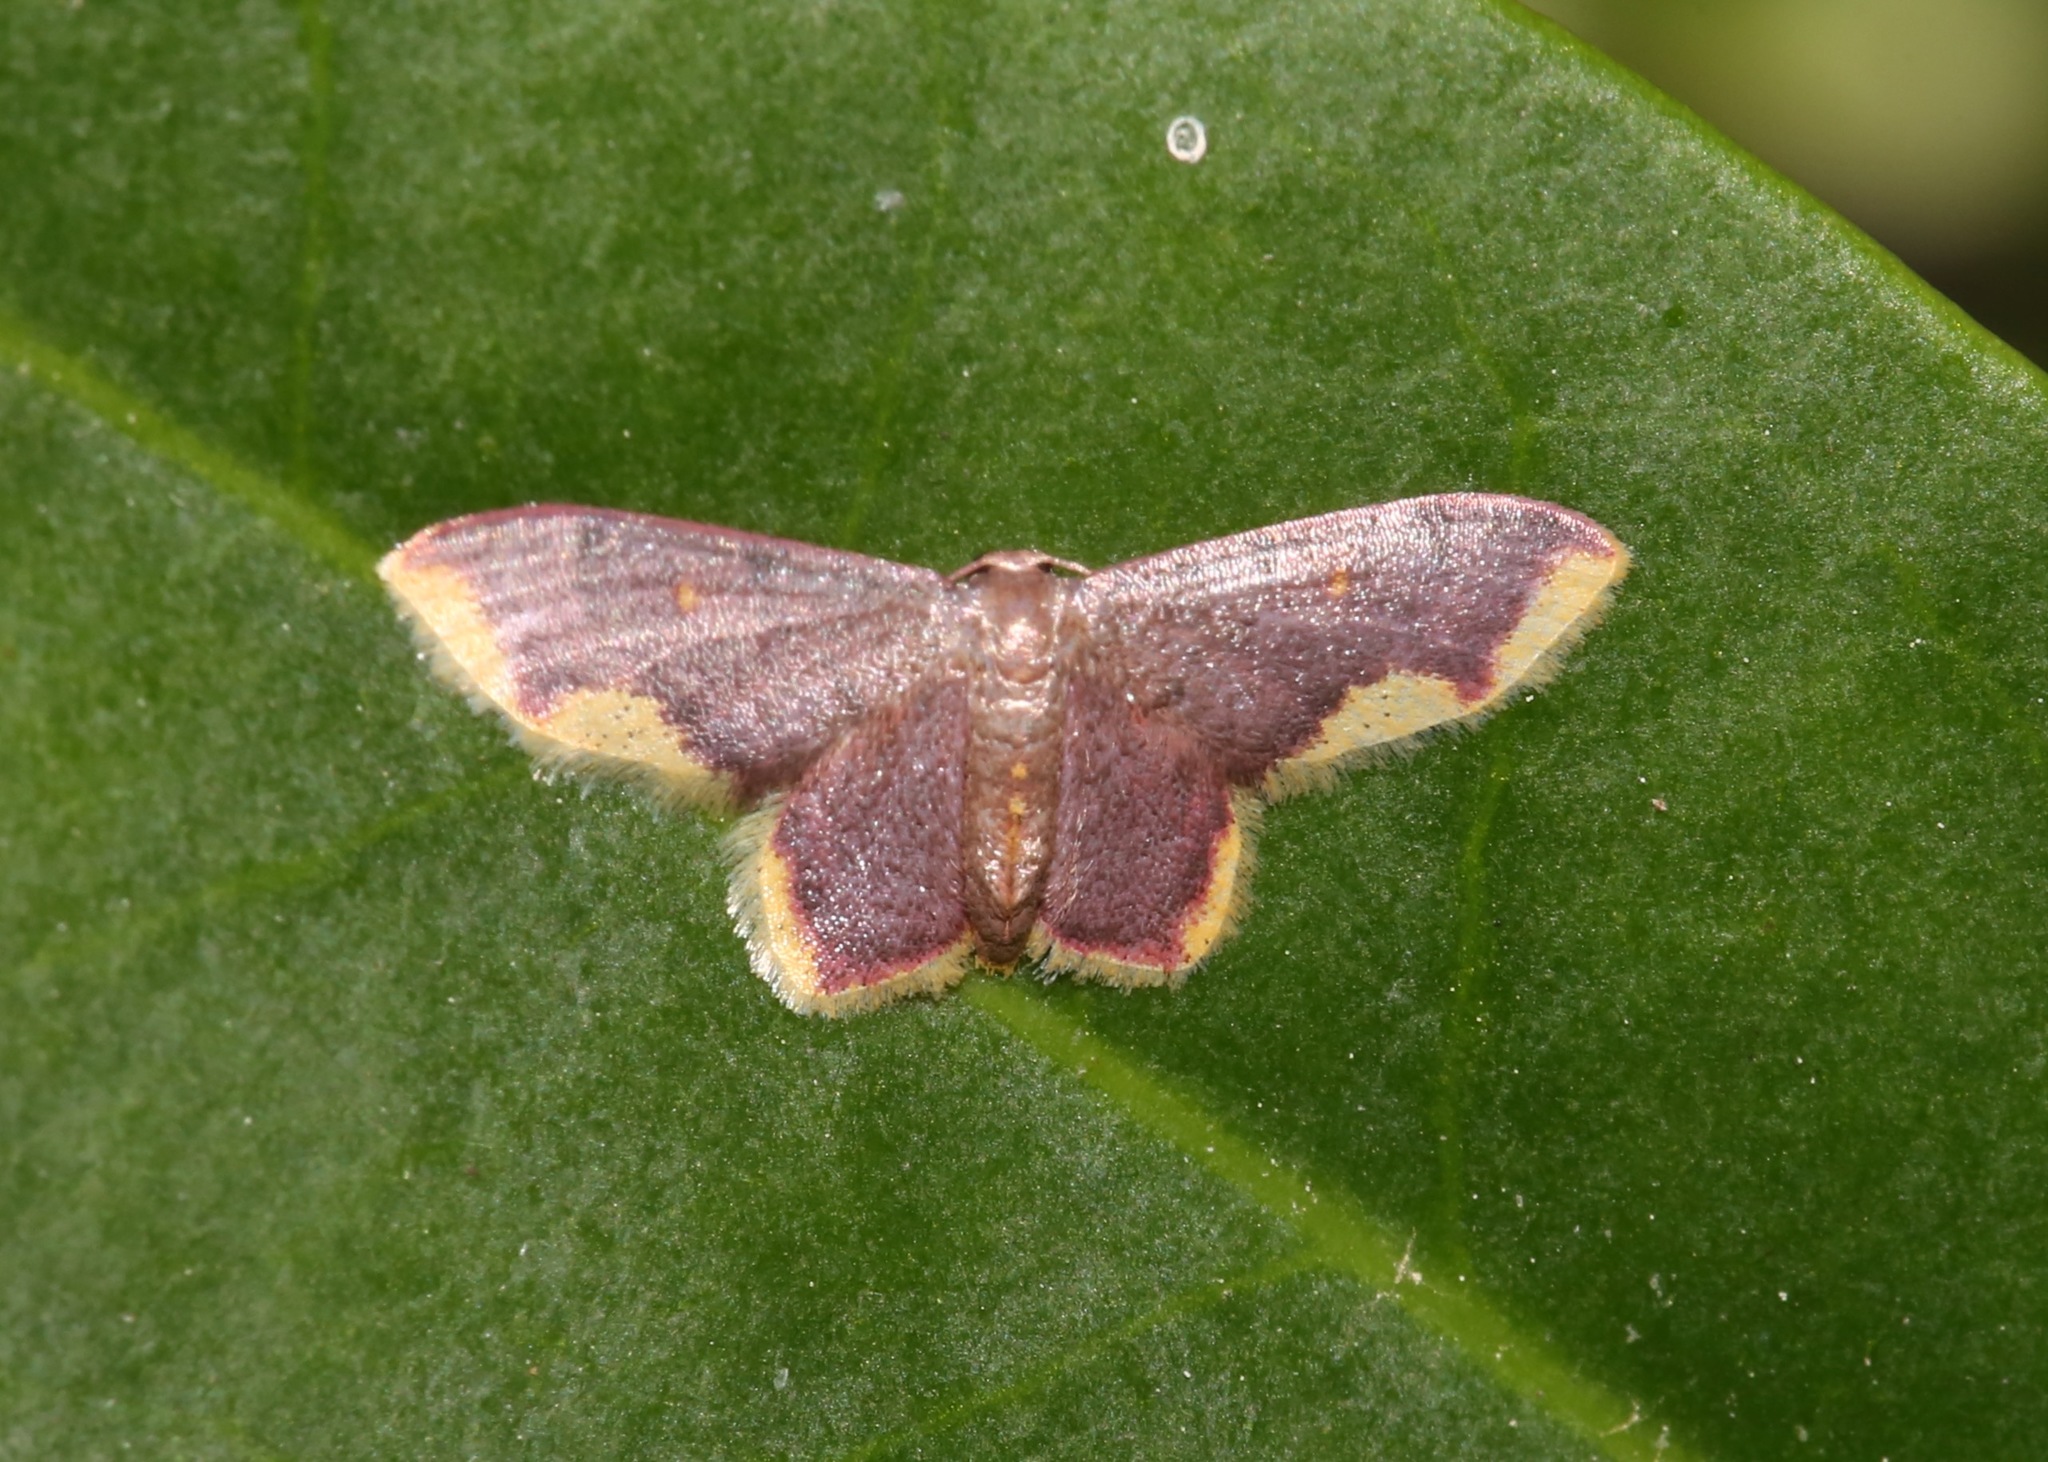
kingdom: Animalia
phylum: Arthropoda
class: Insecta
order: Lepidoptera
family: Geometridae
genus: Lophosis
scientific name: Lophosis labeculata
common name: Stained lophosis moth
